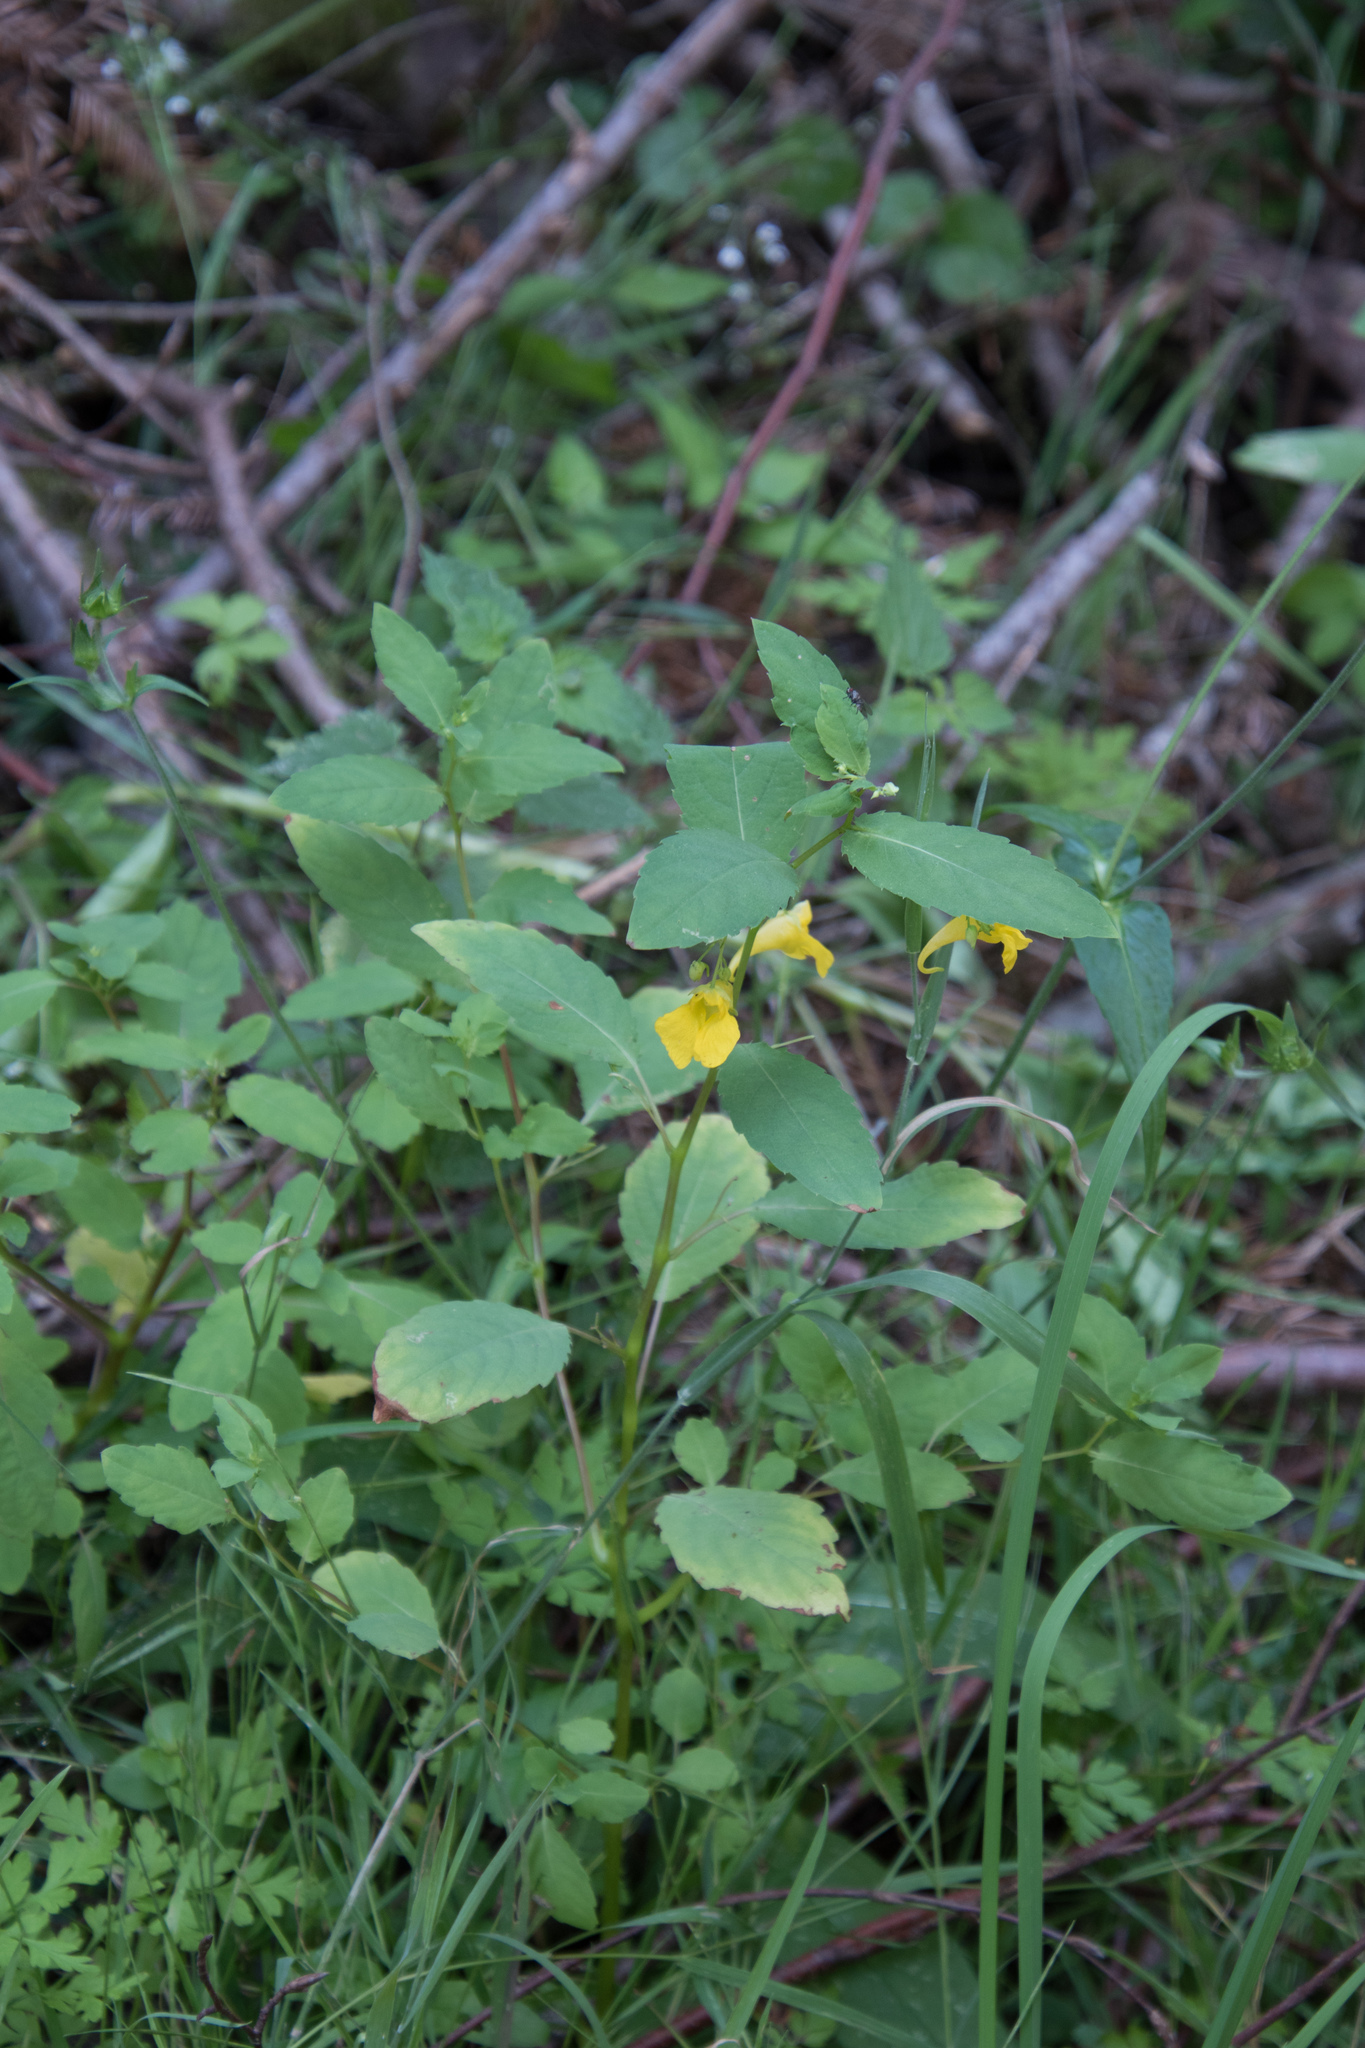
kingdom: Plantae
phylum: Tracheophyta
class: Magnoliopsida
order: Ericales
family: Balsaminaceae
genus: Impatiens
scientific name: Impatiens noli-tangere
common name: Touch-me-not balsam
